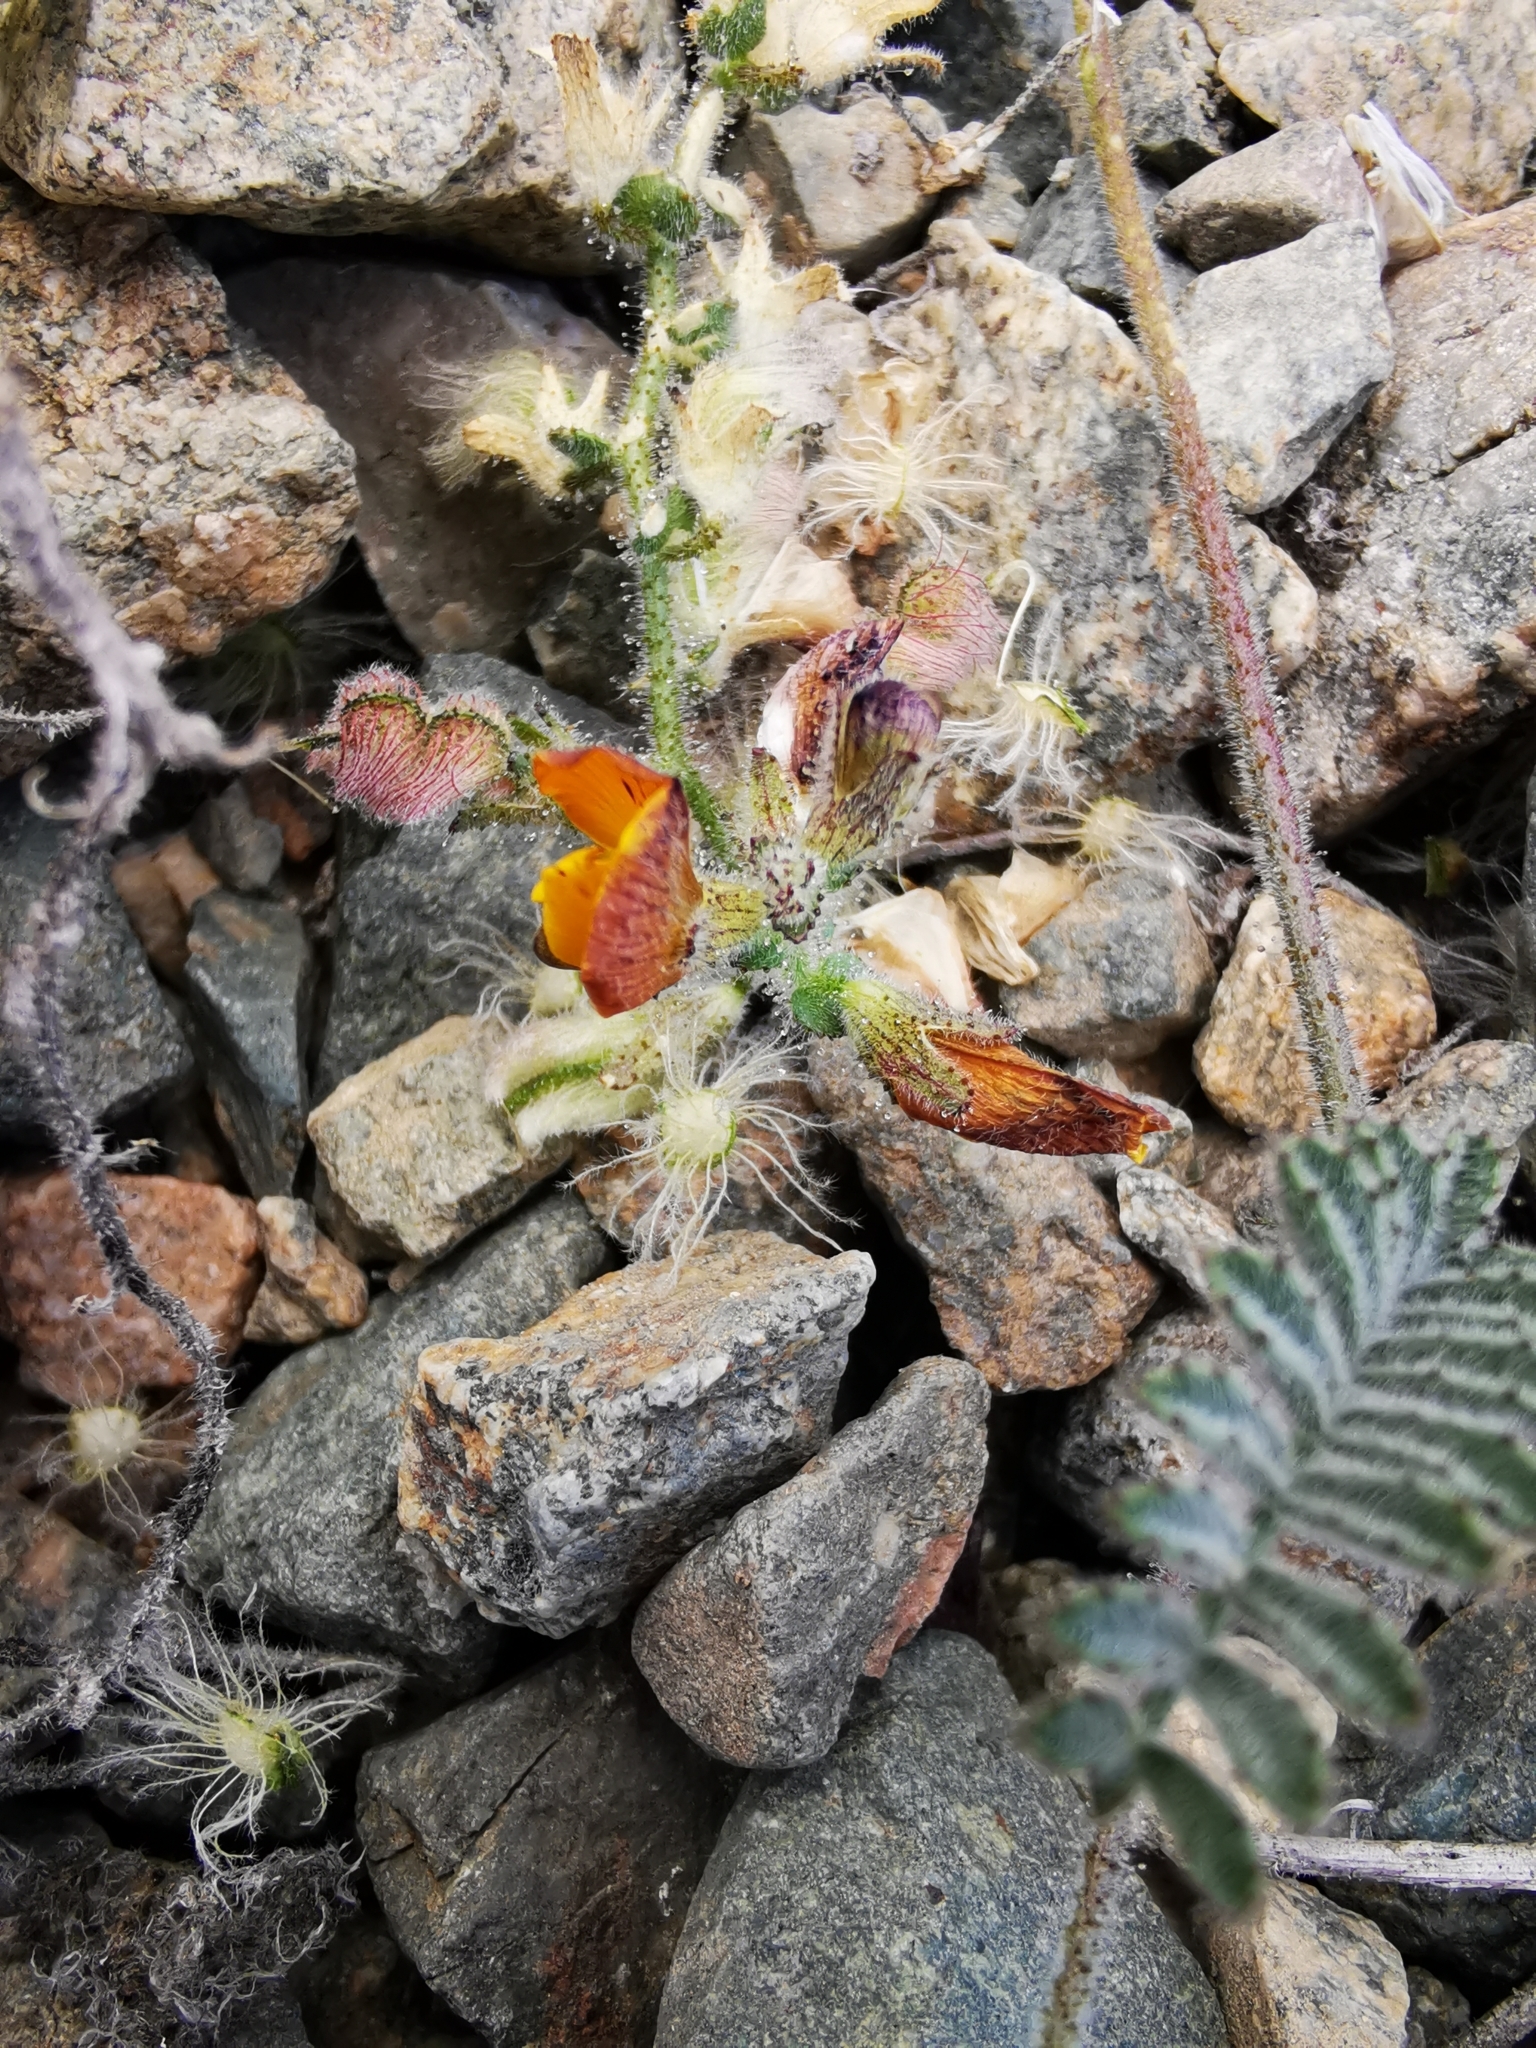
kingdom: Plantae
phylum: Tracheophyta
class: Magnoliopsida
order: Fabales
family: Fabaceae
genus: Adesmia
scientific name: Adesmia eremophila
